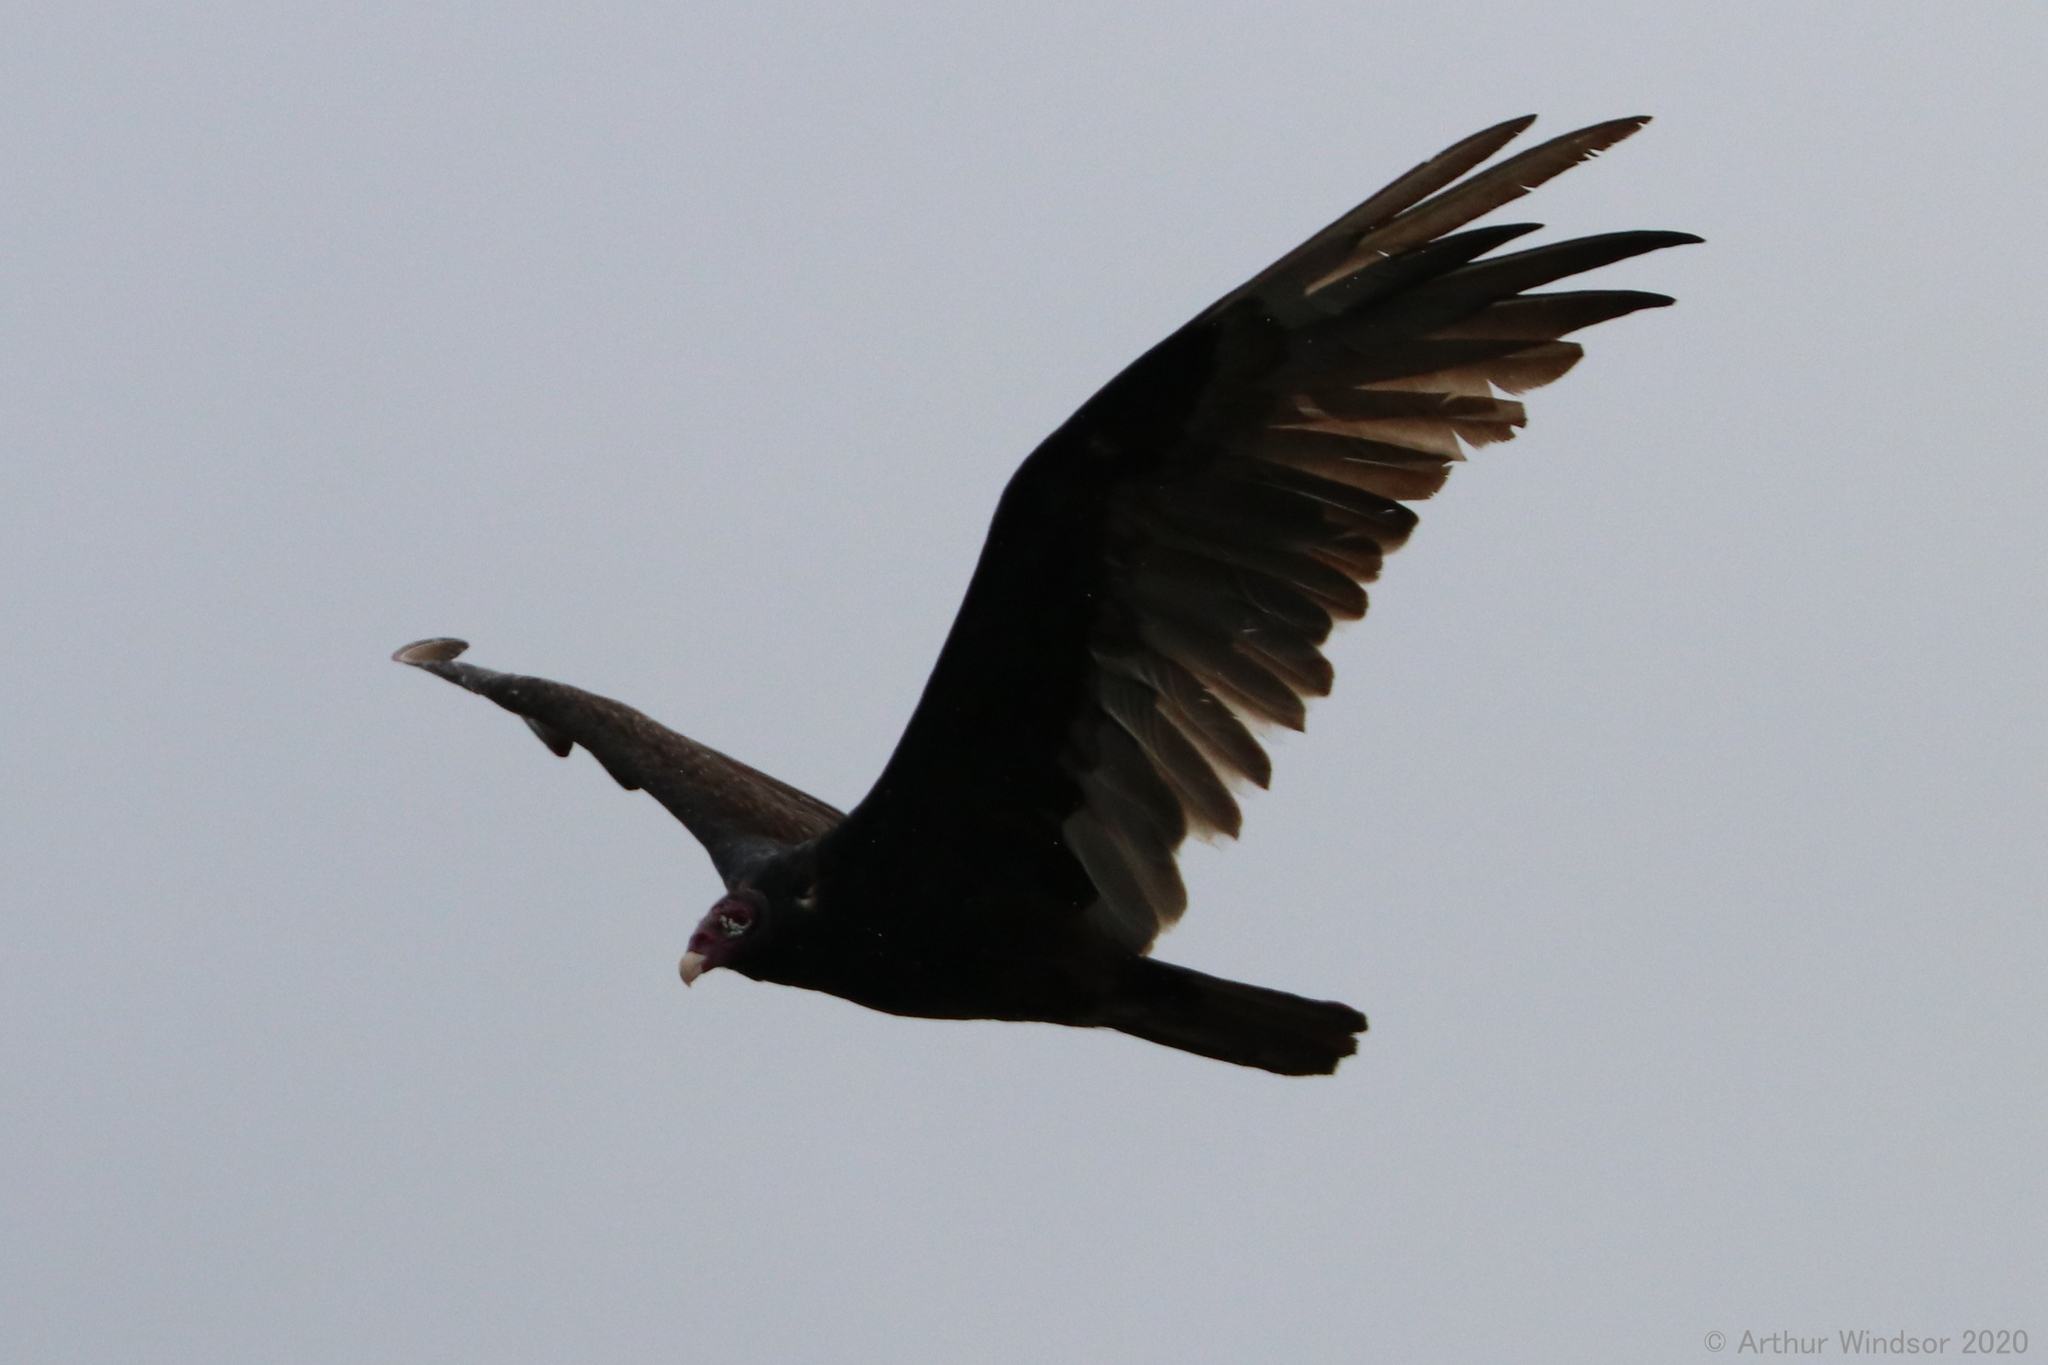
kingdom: Animalia
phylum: Chordata
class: Aves
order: Accipitriformes
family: Cathartidae
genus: Cathartes
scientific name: Cathartes aura
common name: Turkey vulture
